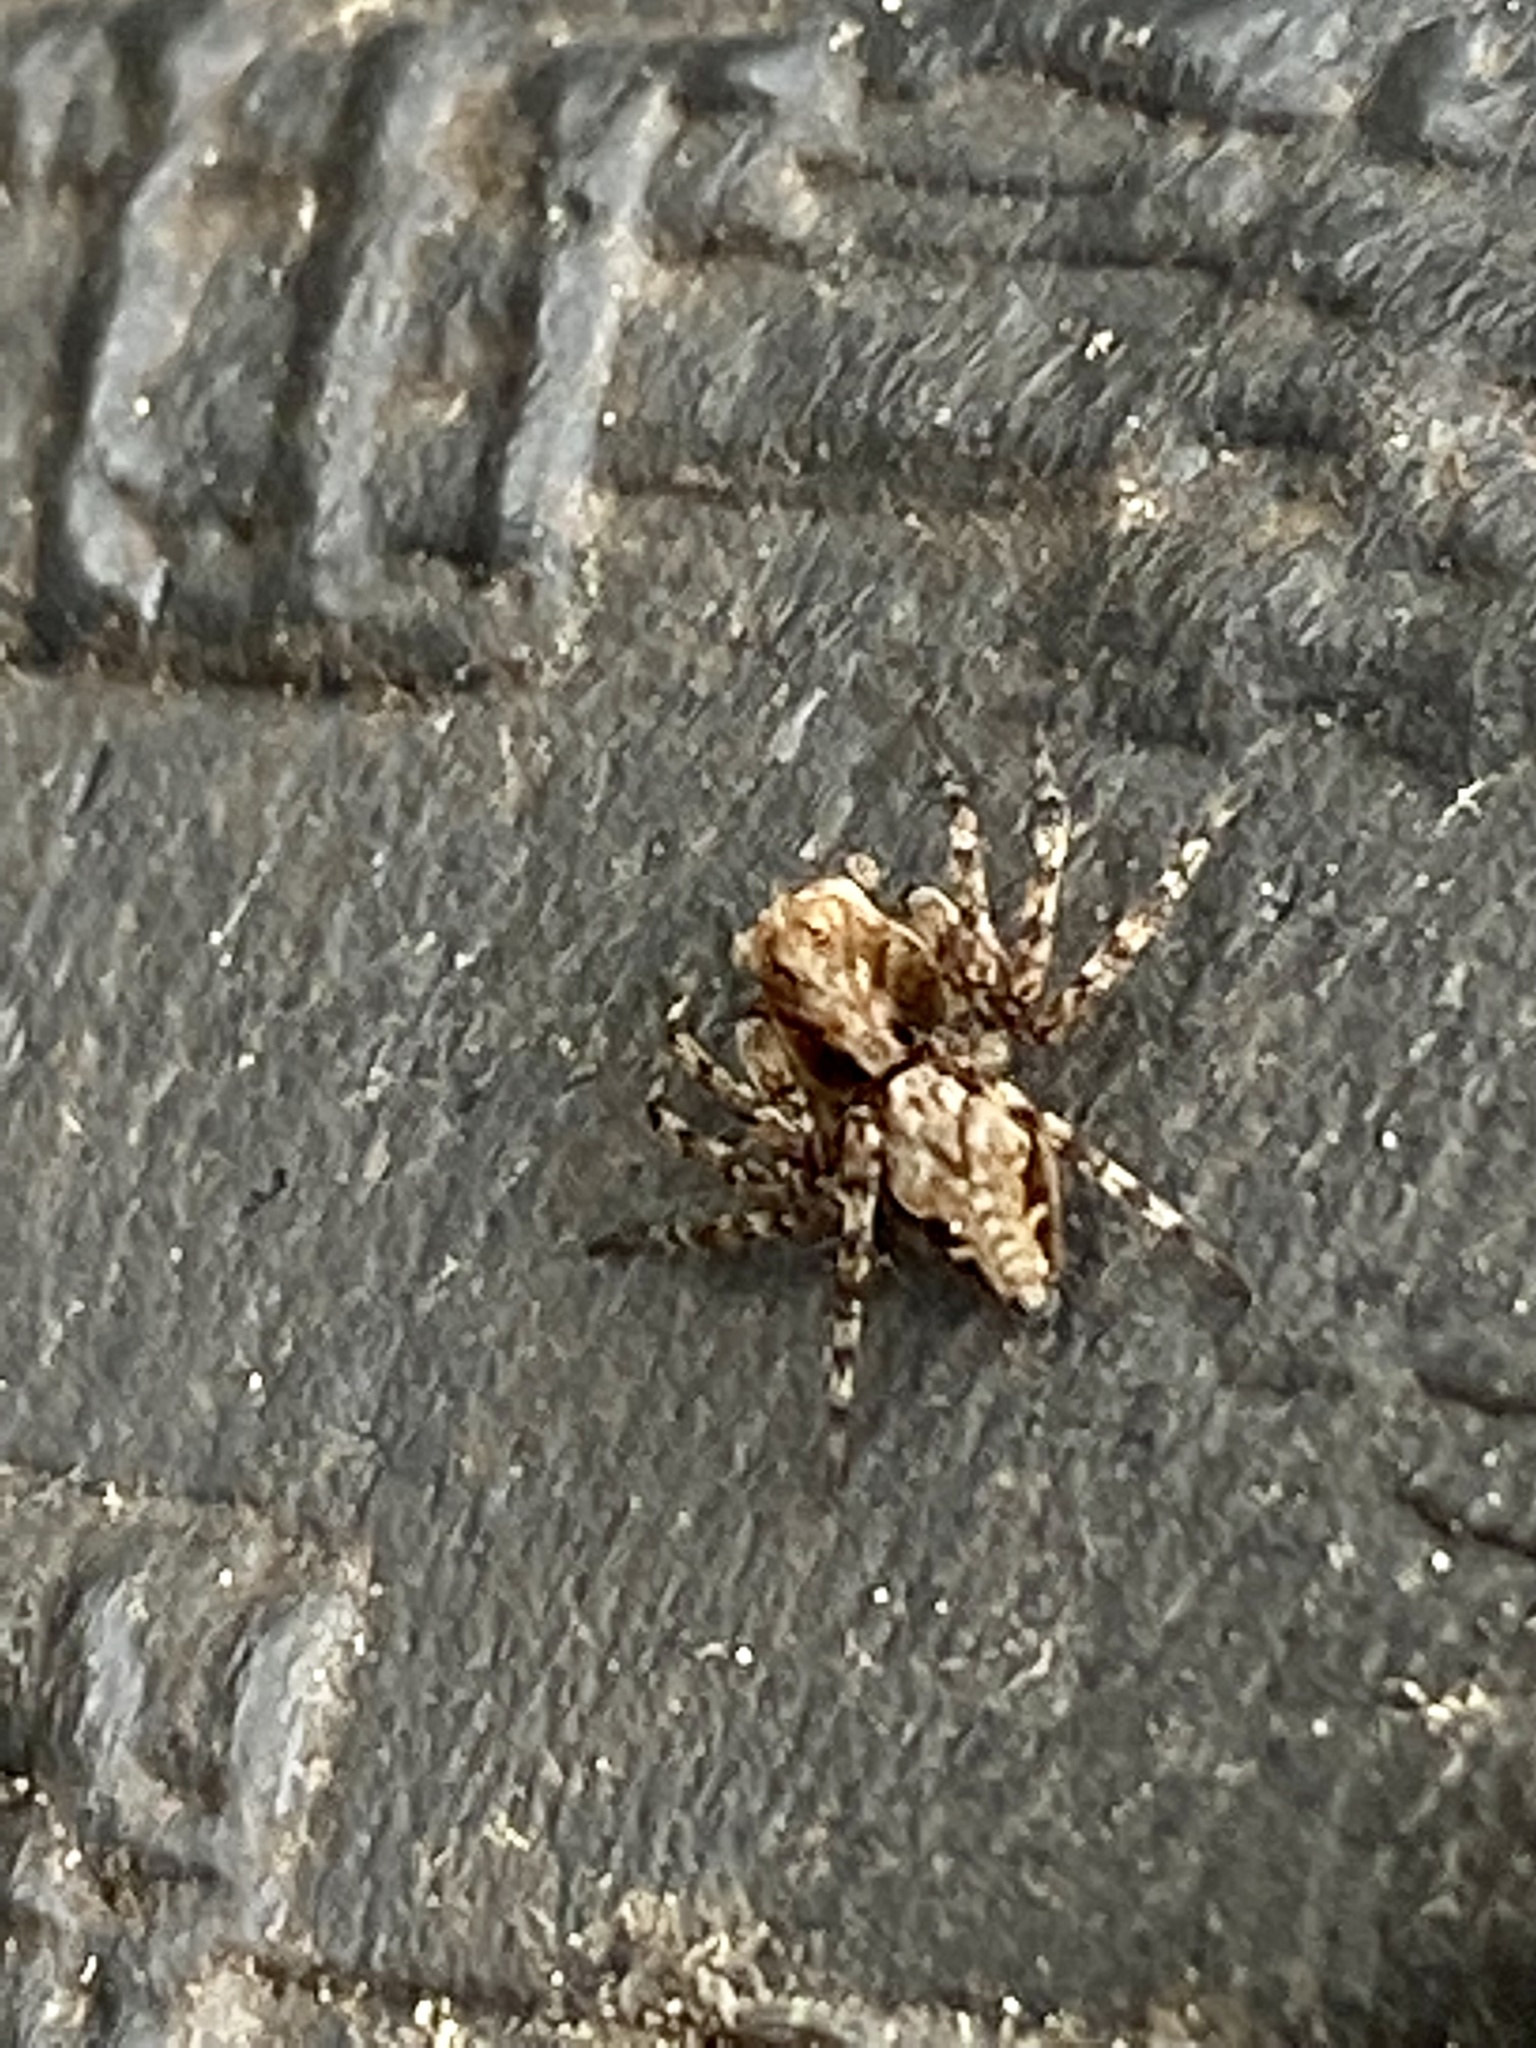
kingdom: Animalia
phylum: Arthropoda
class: Arachnida
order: Araneae
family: Oxyopidae
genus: Oxyopes
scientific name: Oxyopes scalaris
